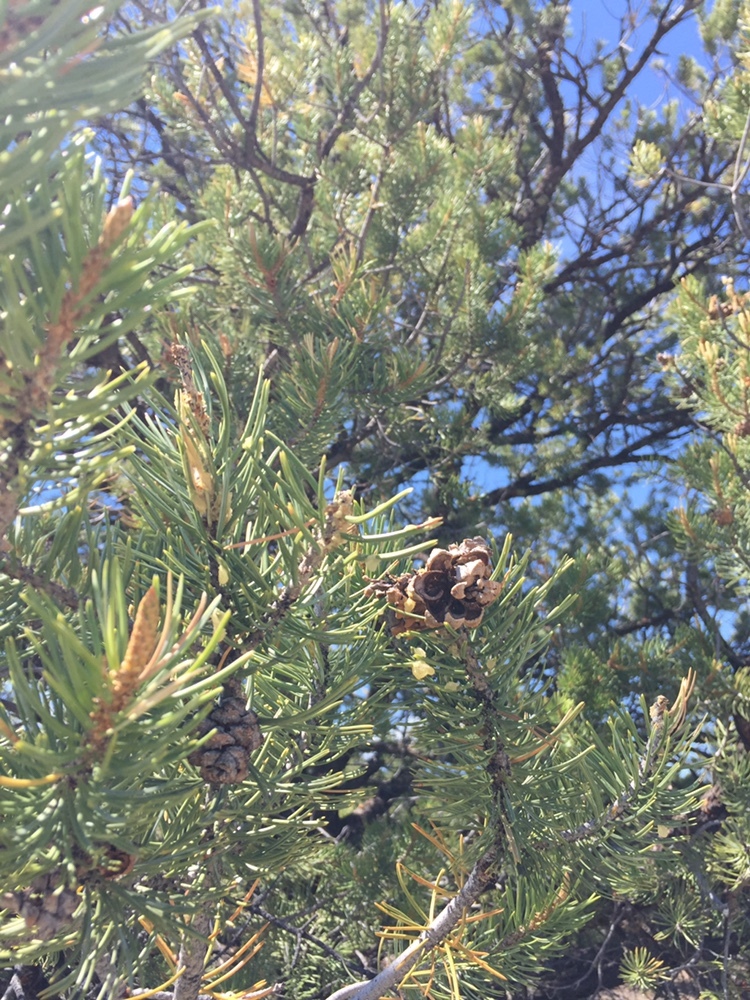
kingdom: Plantae
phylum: Tracheophyta
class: Pinopsida
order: Pinales
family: Pinaceae
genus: Pinus
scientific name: Pinus edulis
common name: Colorado pinyon
